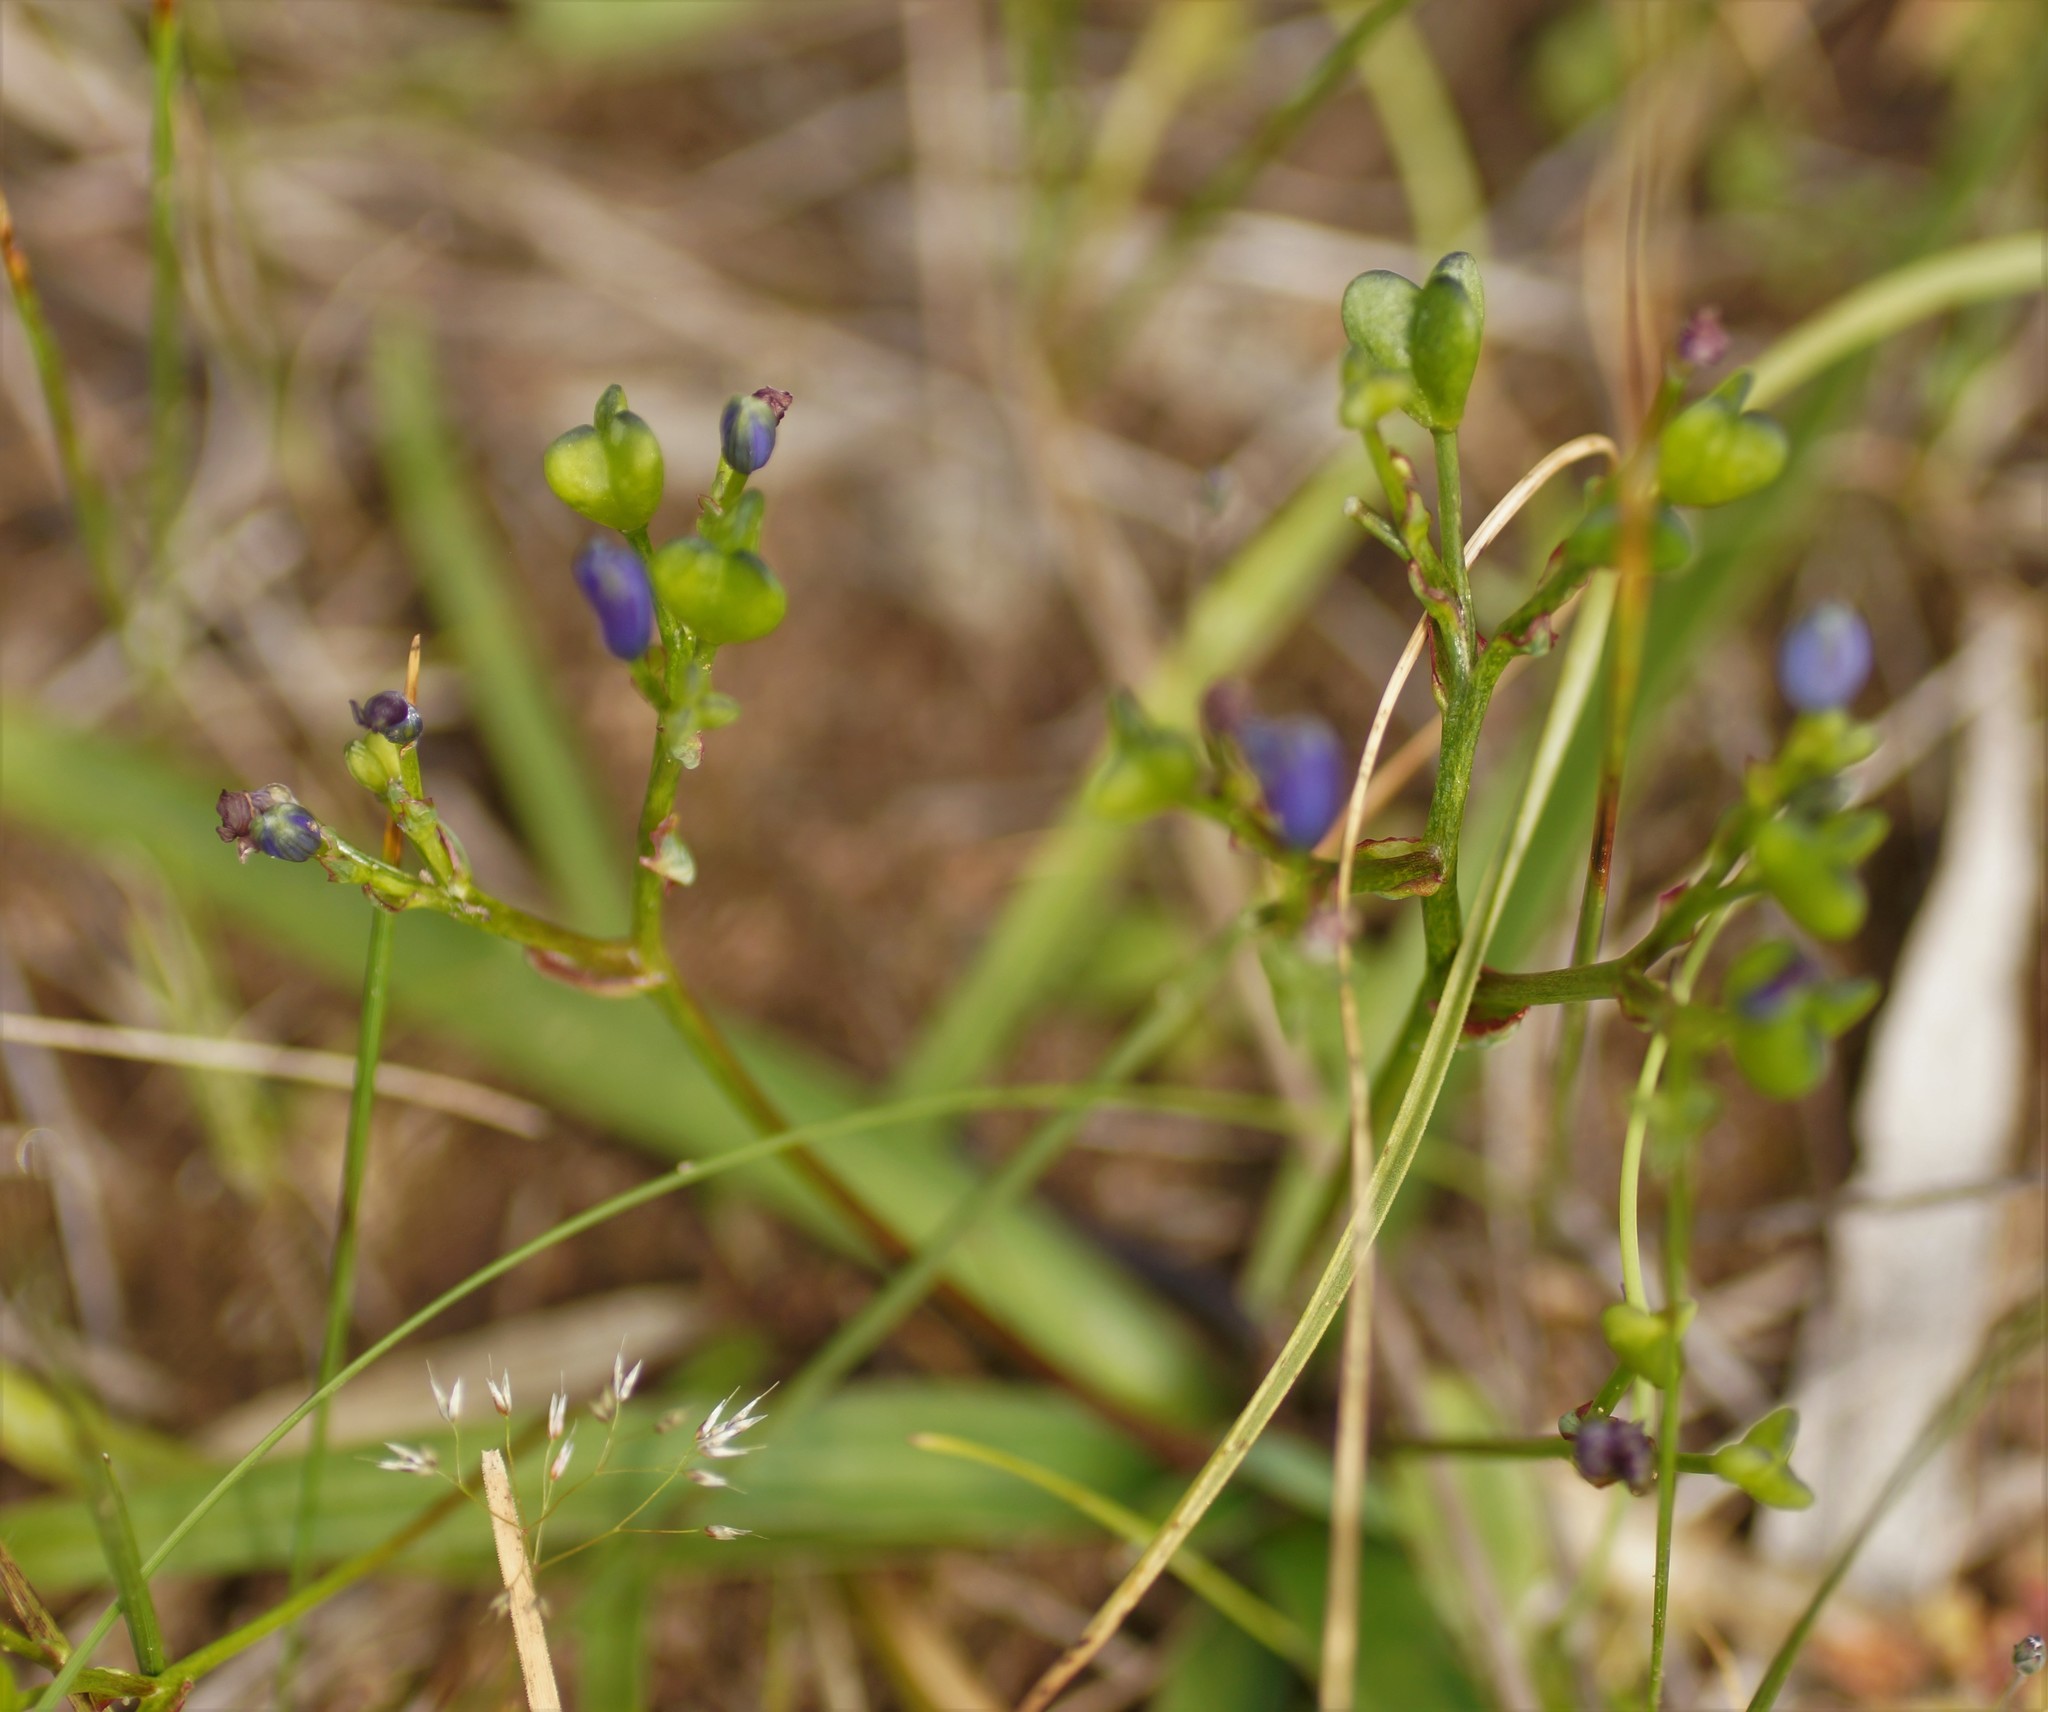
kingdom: Plantae
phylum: Tracheophyta
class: Liliopsida
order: Asparagales
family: Asphodelaceae
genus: Chamaescilla
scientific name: Chamaescilla corymbosa
